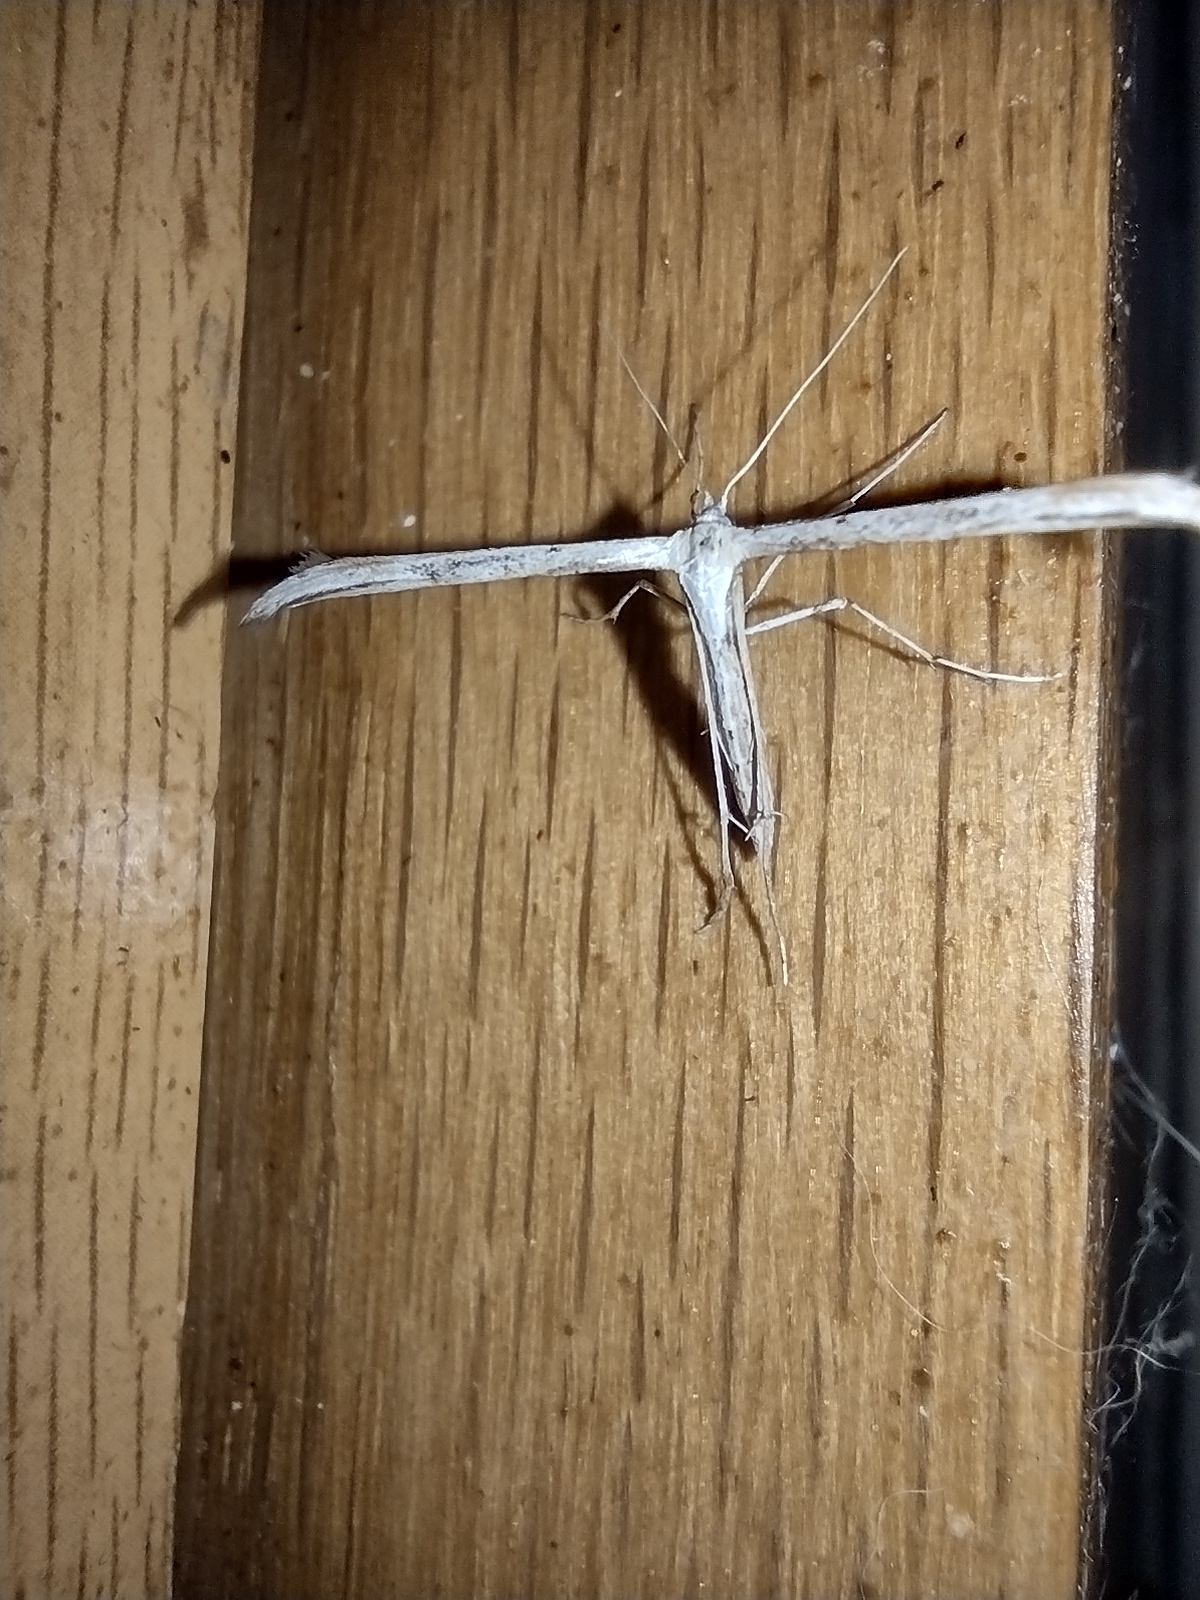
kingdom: Animalia
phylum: Arthropoda
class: Insecta
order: Lepidoptera
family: Pterophoridae
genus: Emmelina
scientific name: Emmelina monodactyla
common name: Common plume
